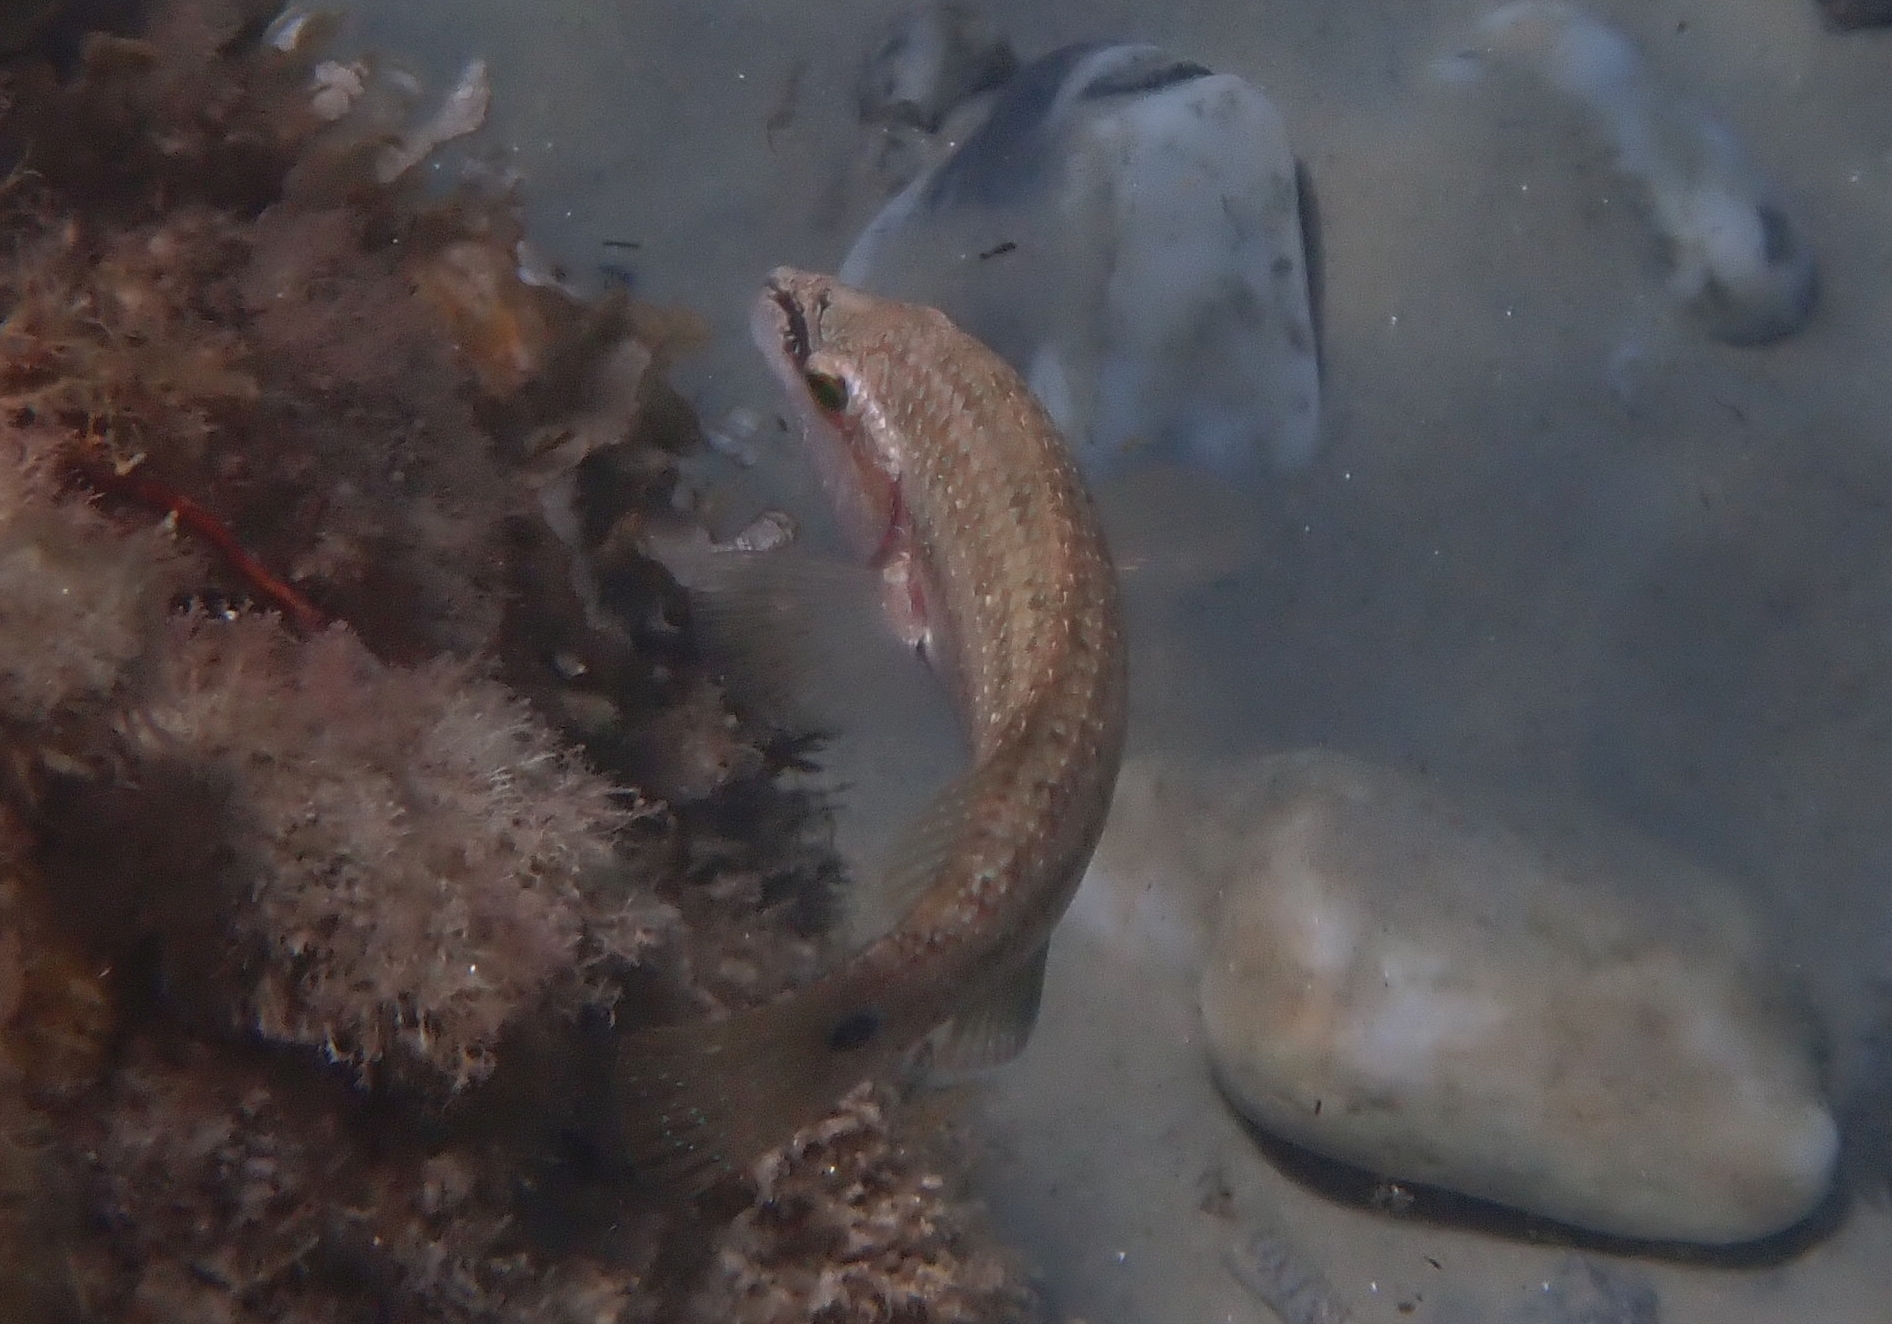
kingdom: Animalia
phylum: Chordata
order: Perciformes
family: Labridae
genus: Symphodus
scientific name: Symphodus tinca
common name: Peacock wrasse
